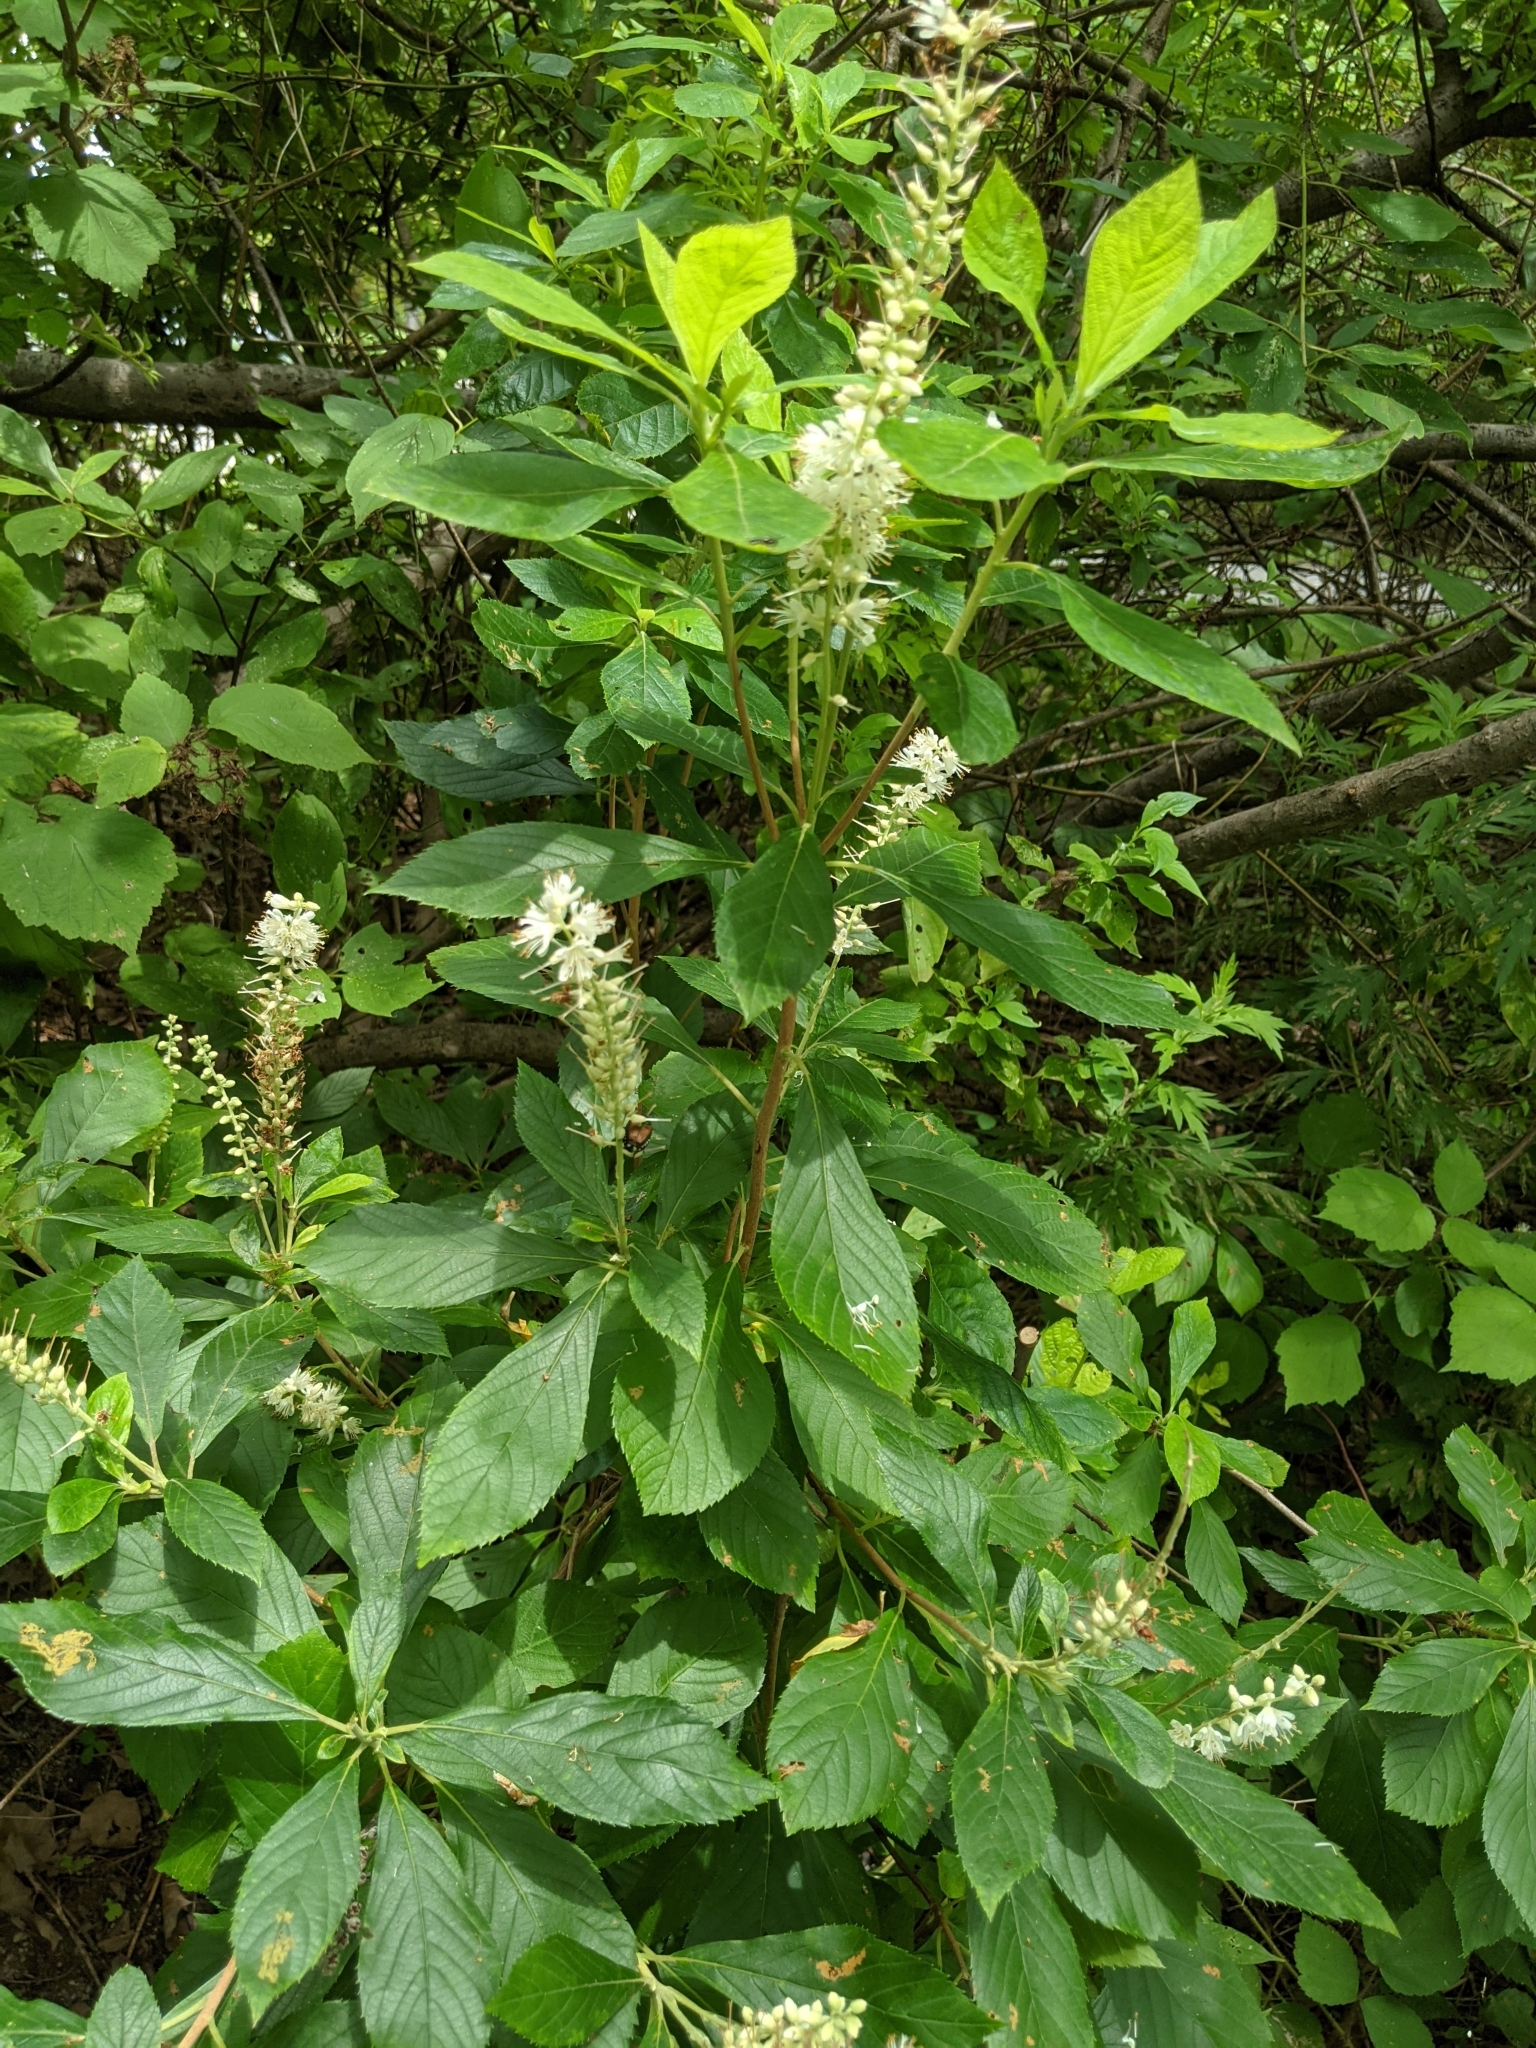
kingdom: Plantae
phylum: Tracheophyta
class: Magnoliopsida
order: Ericales
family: Clethraceae
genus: Clethra
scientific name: Clethra alnifolia
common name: Sweet pepperbush
